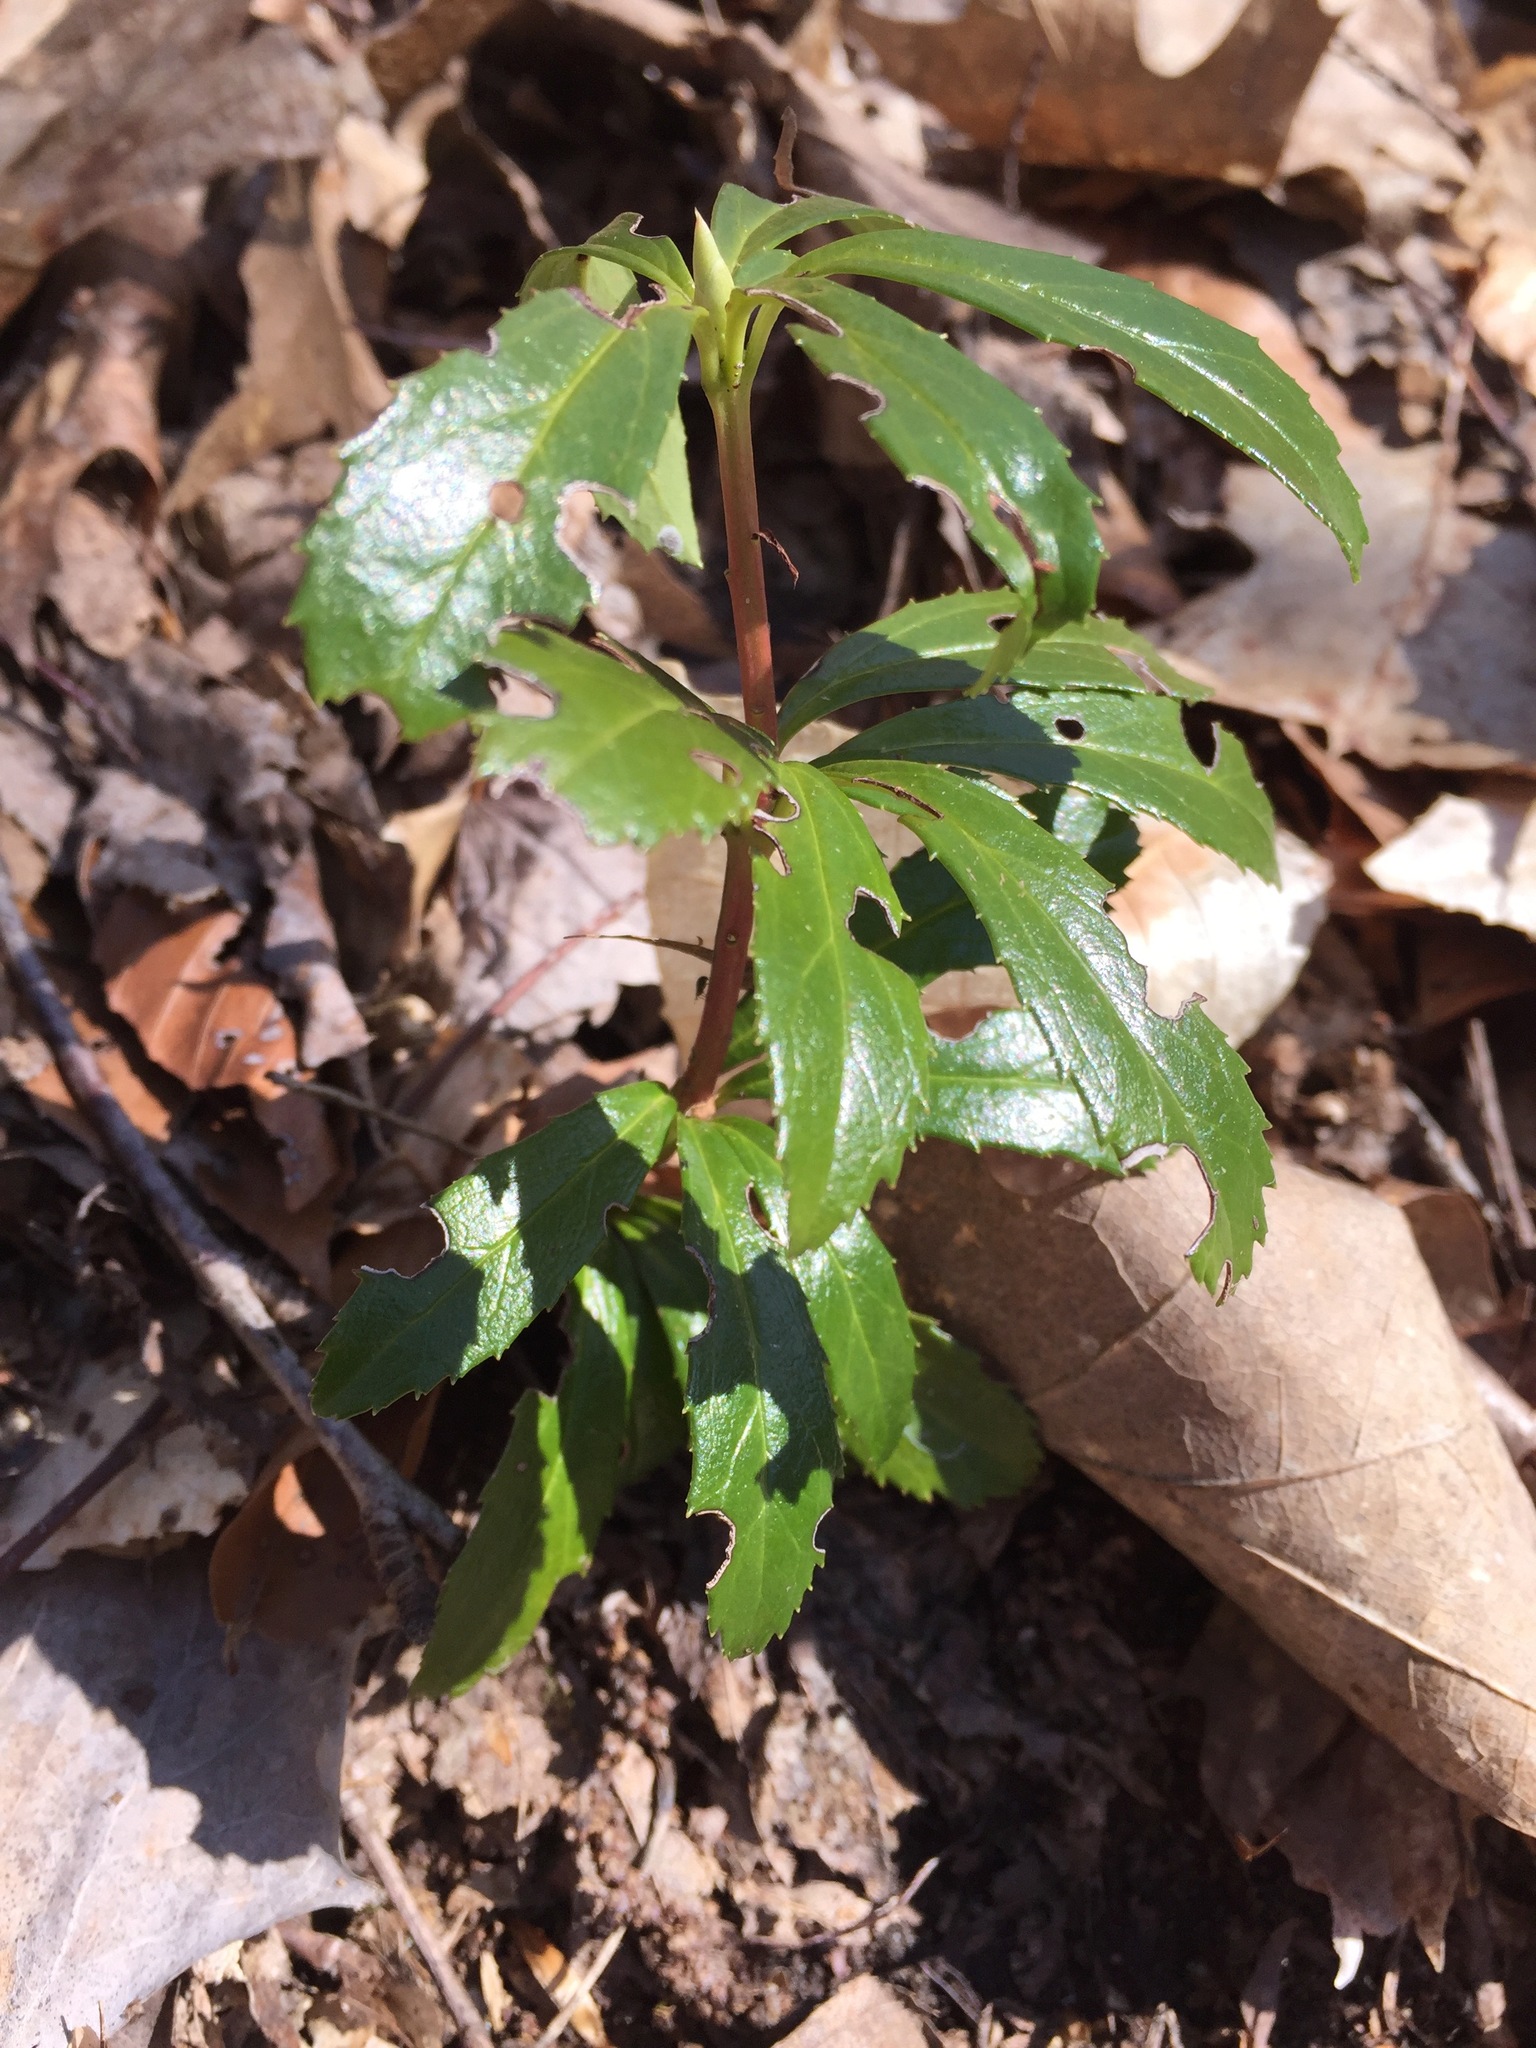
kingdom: Plantae
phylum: Tracheophyta
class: Magnoliopsida
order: Ericales
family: Ericaceae
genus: Chimaphila
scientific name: Chimaphila umbellata
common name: Pipsissewa
